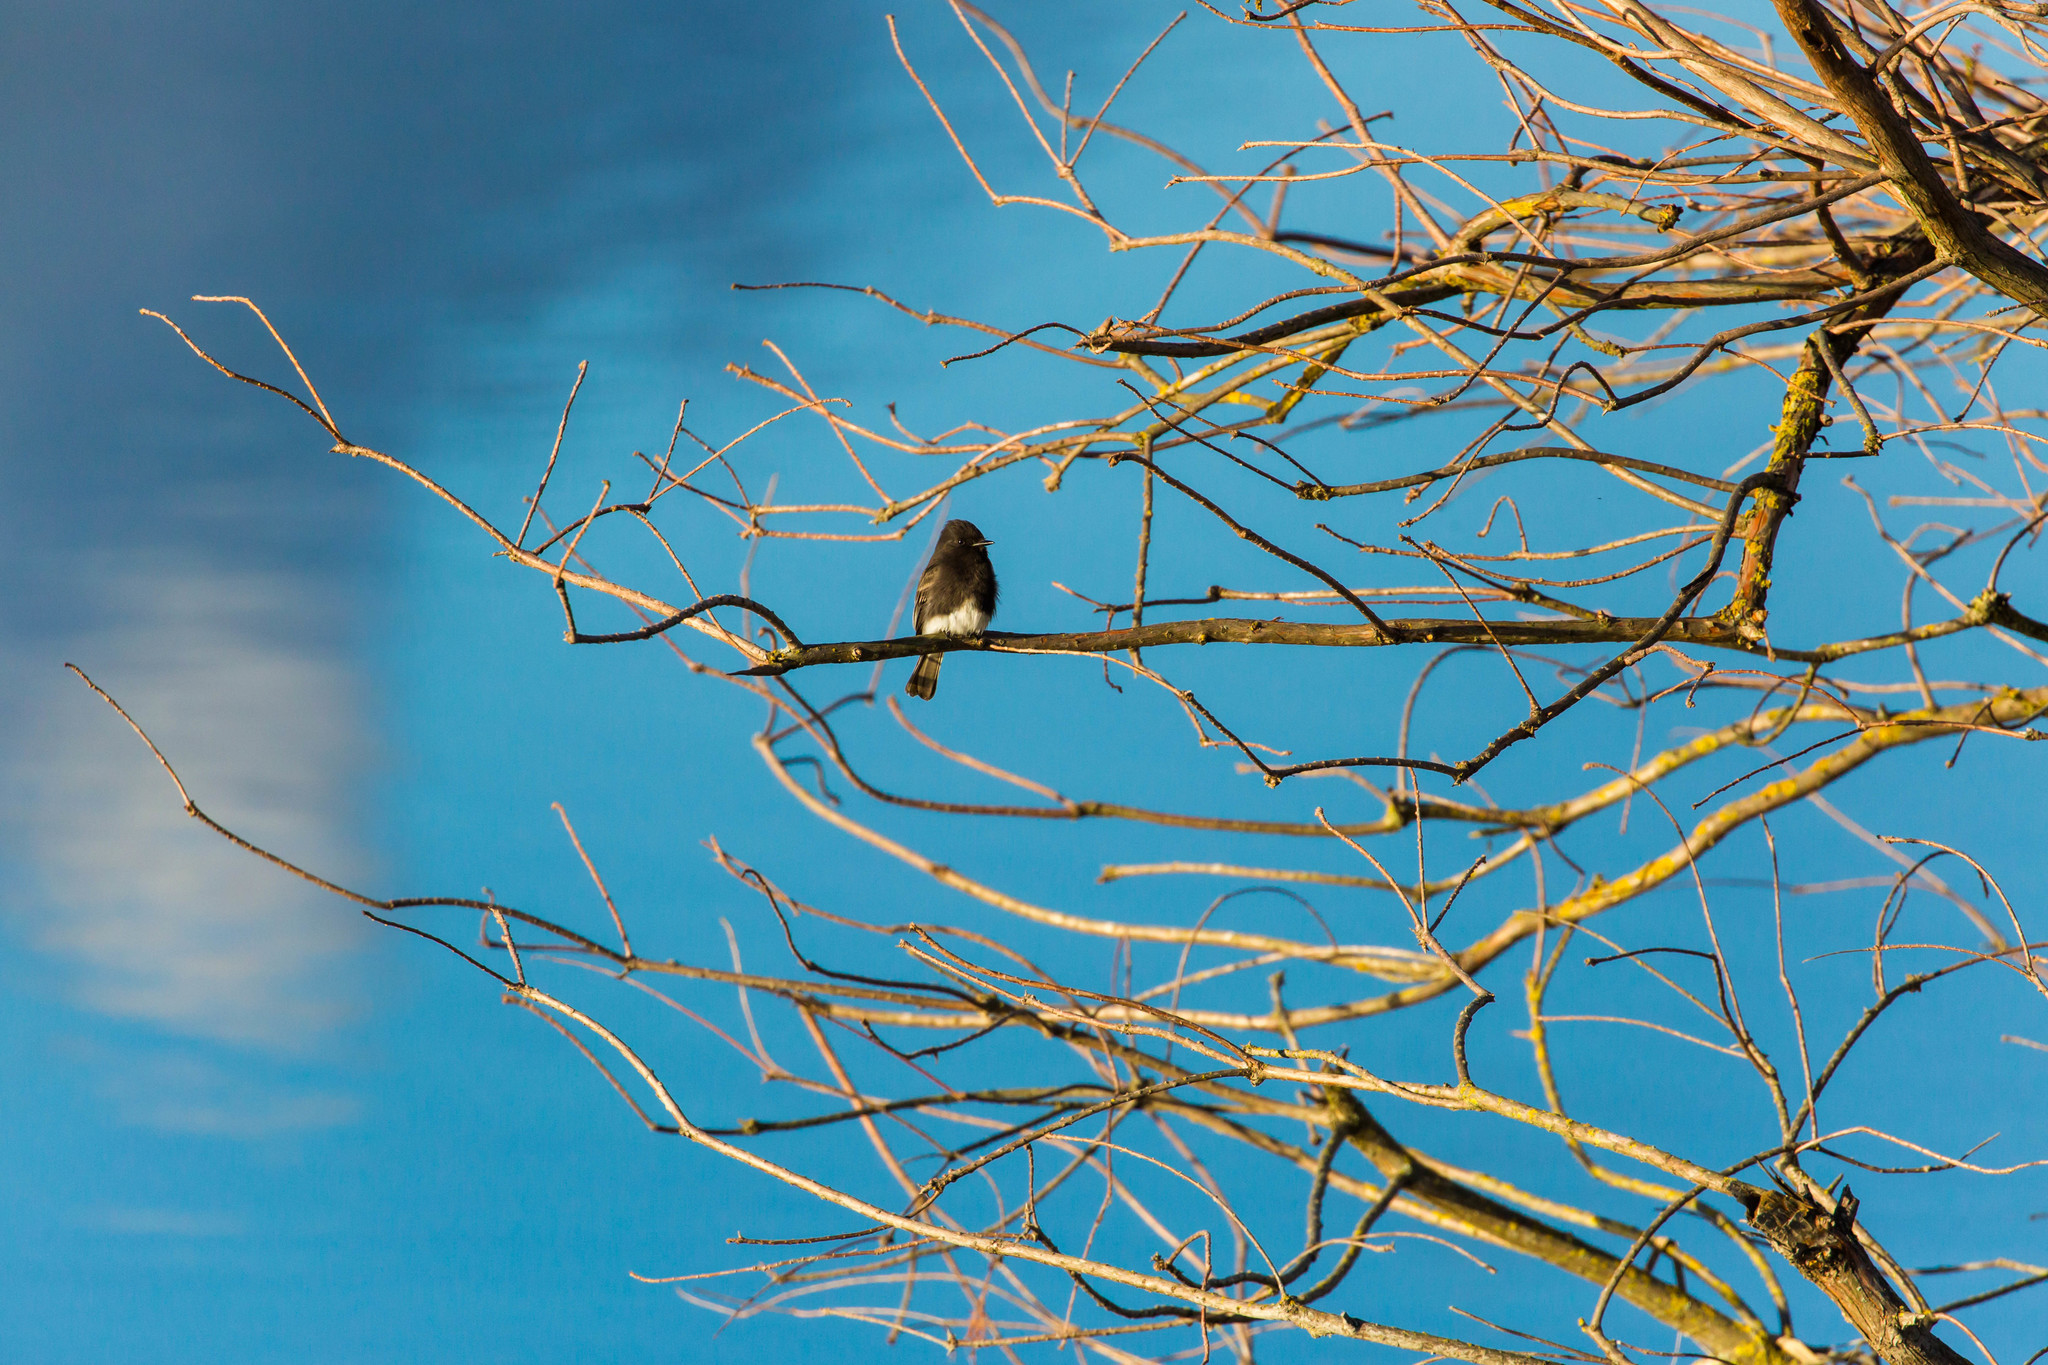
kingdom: Animalia
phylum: Chordata
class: Aves
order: Passeriformes
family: Tyrannidae
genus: Sayornis
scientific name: Sayornis nigricans
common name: Black phoebe
